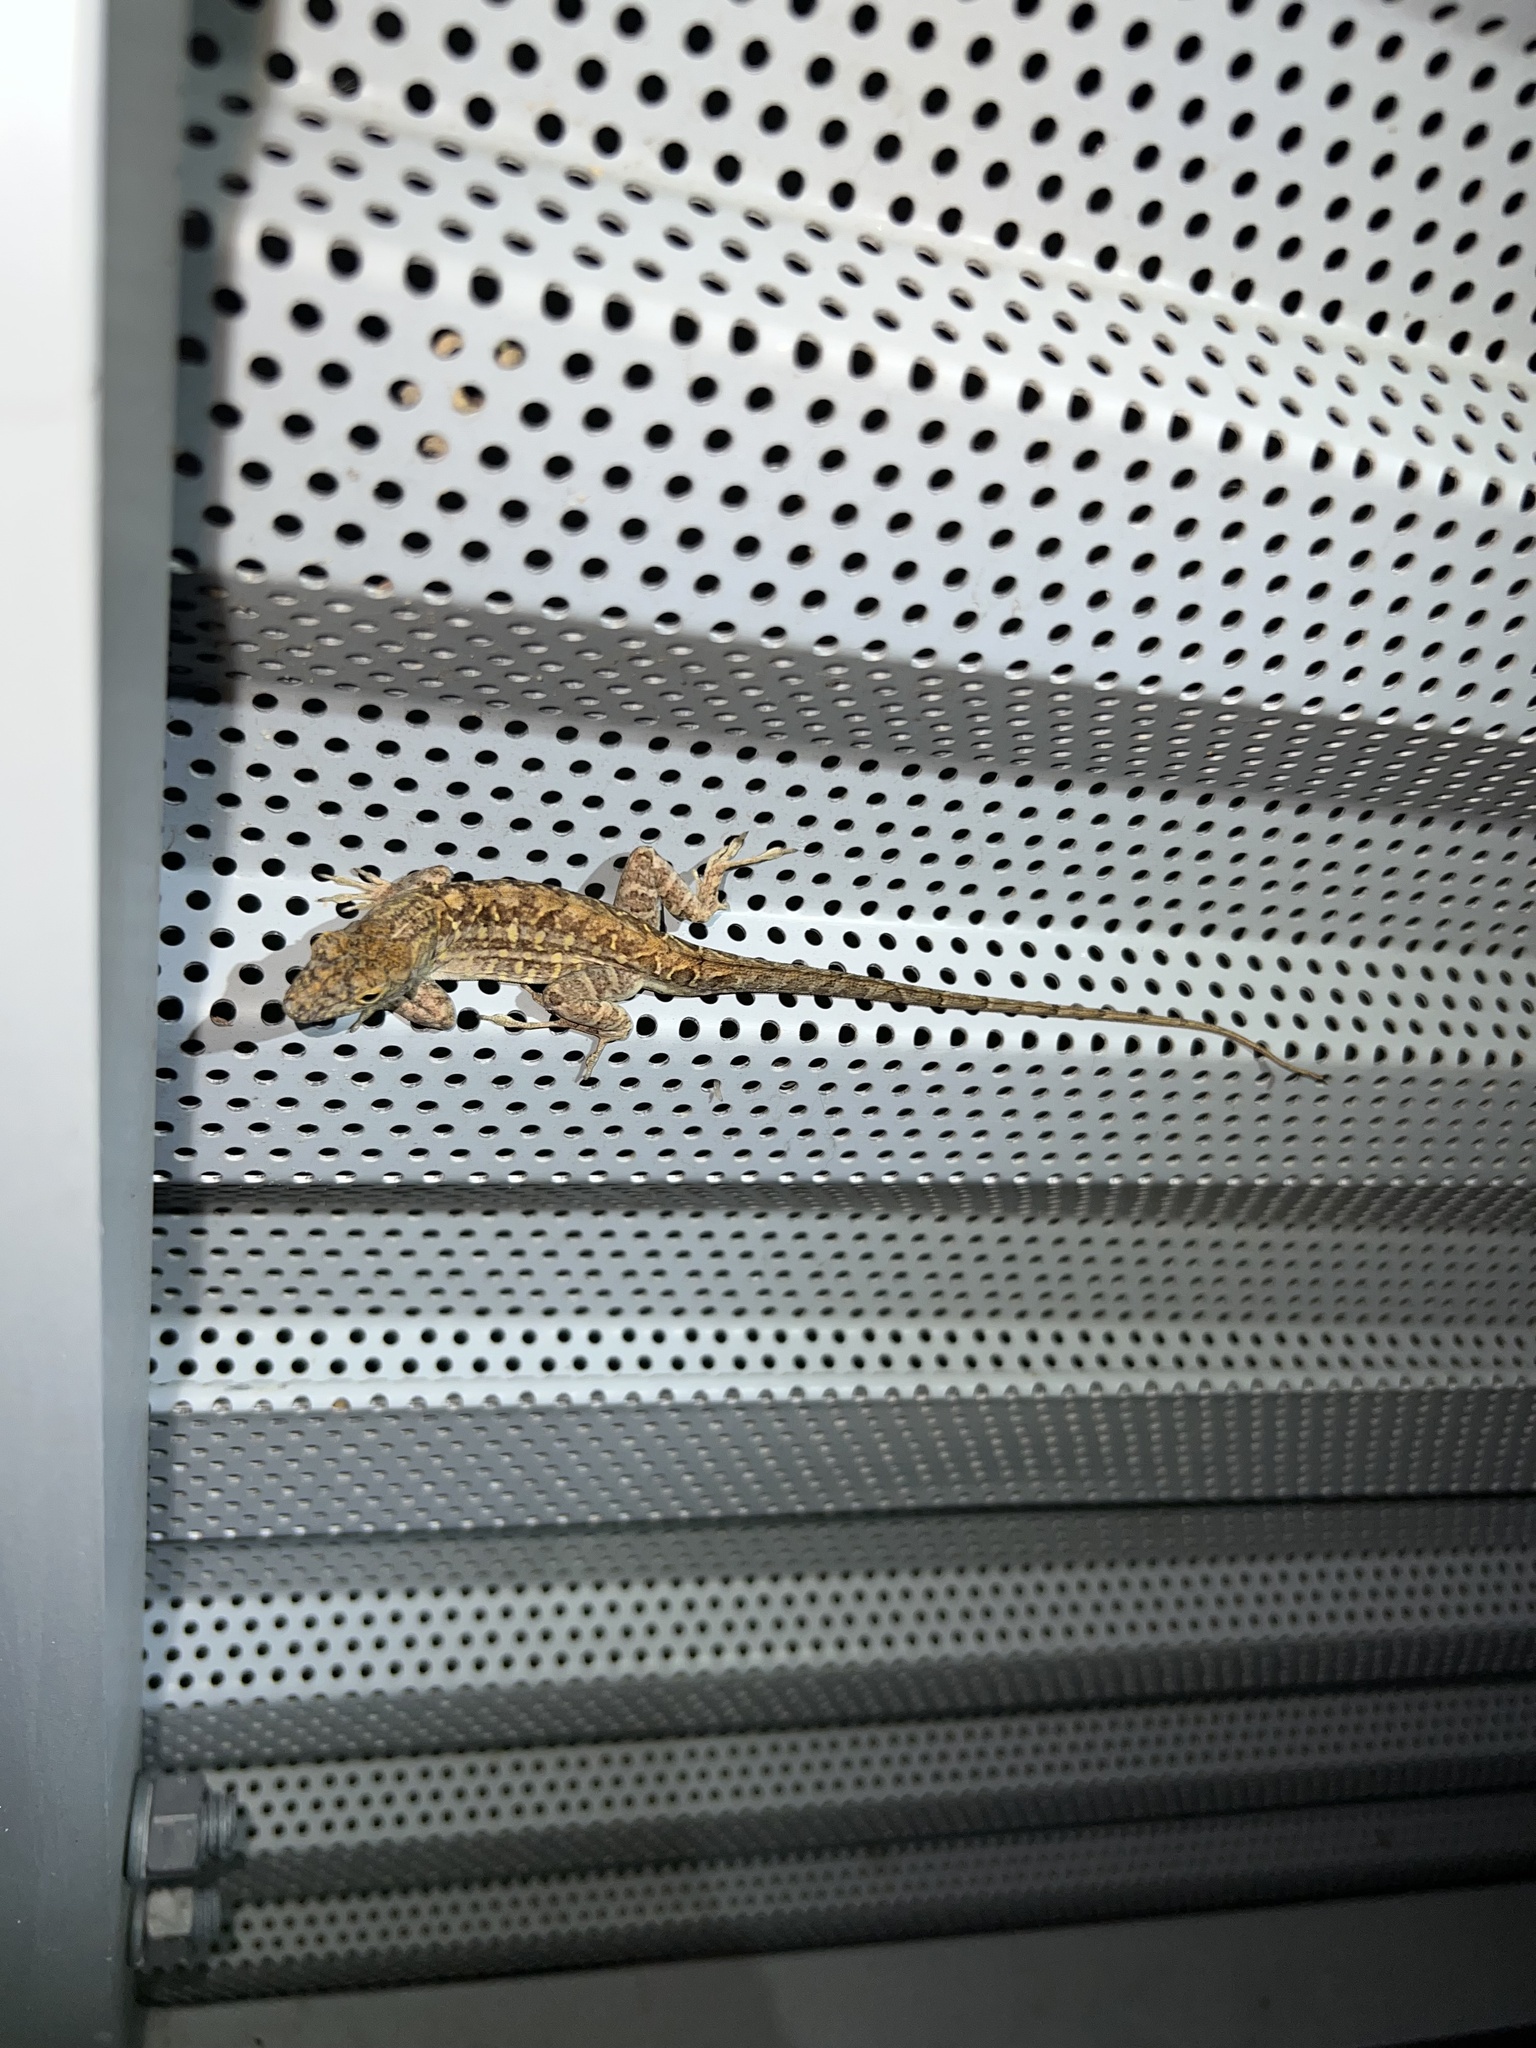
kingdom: Animalia
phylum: Chordata
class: Squamata
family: Dactyloidae
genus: Anolis
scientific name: Anolis sagrei
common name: Brown anole
